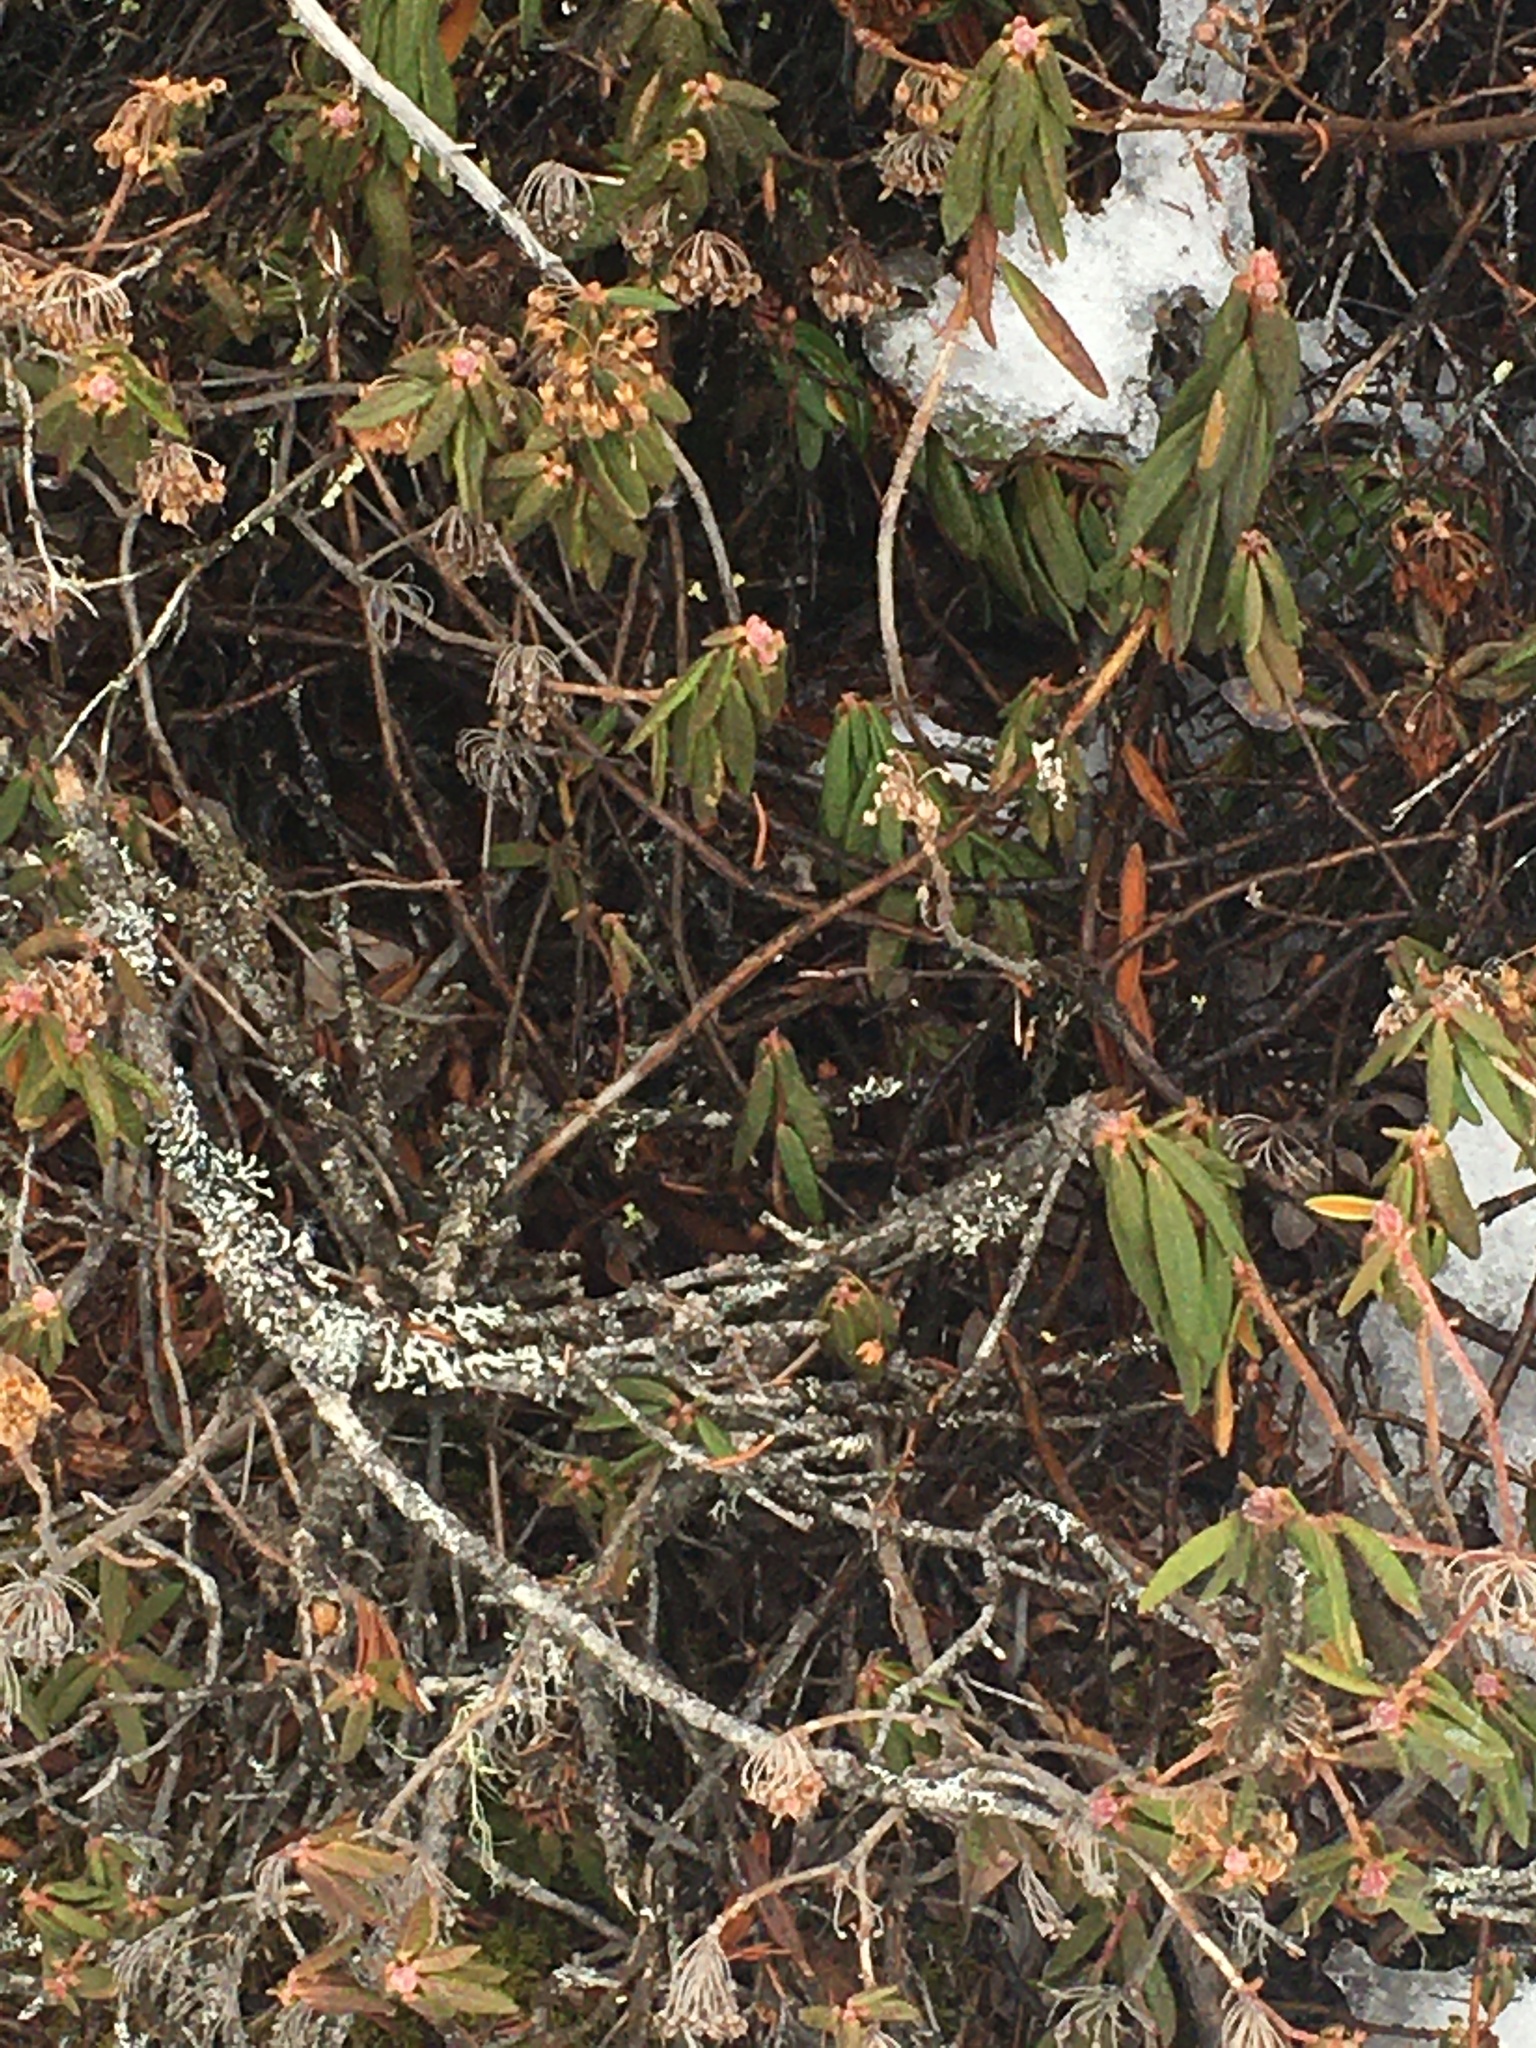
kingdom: Plantae
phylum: Tracheophyta
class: Magnoliopsida
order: Ericales
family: Ericaceae
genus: Rhododendron
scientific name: Rhododendron groenlandicum
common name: Bog labrador tea
